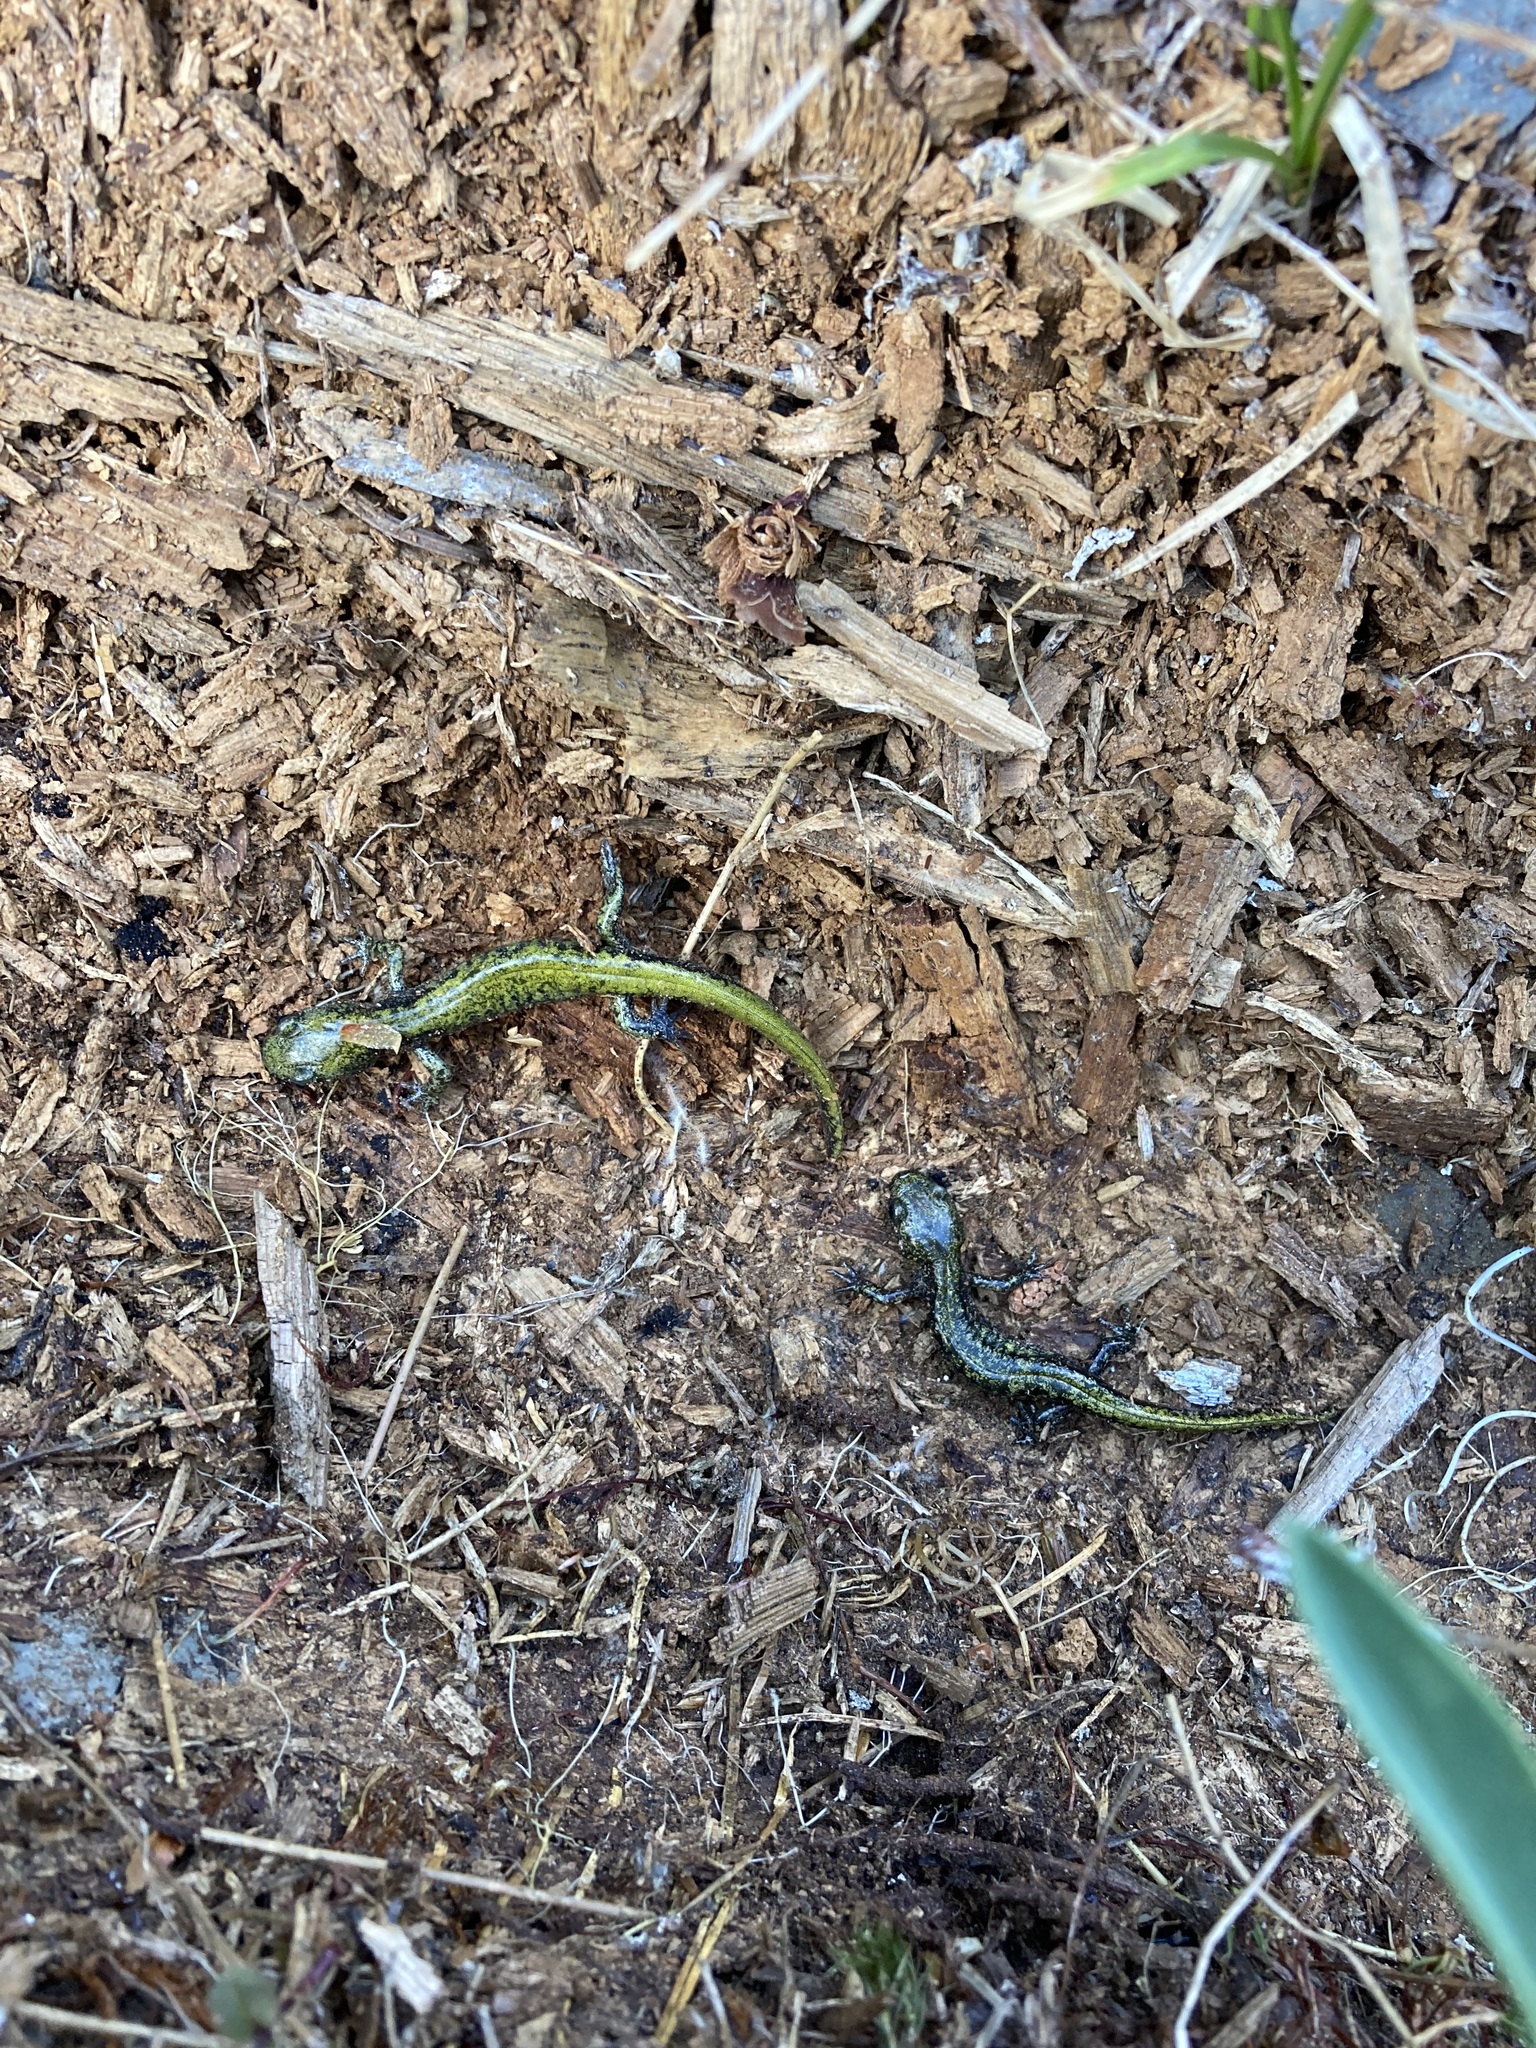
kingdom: Animalia
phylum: Chordata
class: Amphibia
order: Caudata
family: Ambystomatidae
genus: Ambystoma
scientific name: Ambystoma macrodactylum
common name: Long-toed salamander
